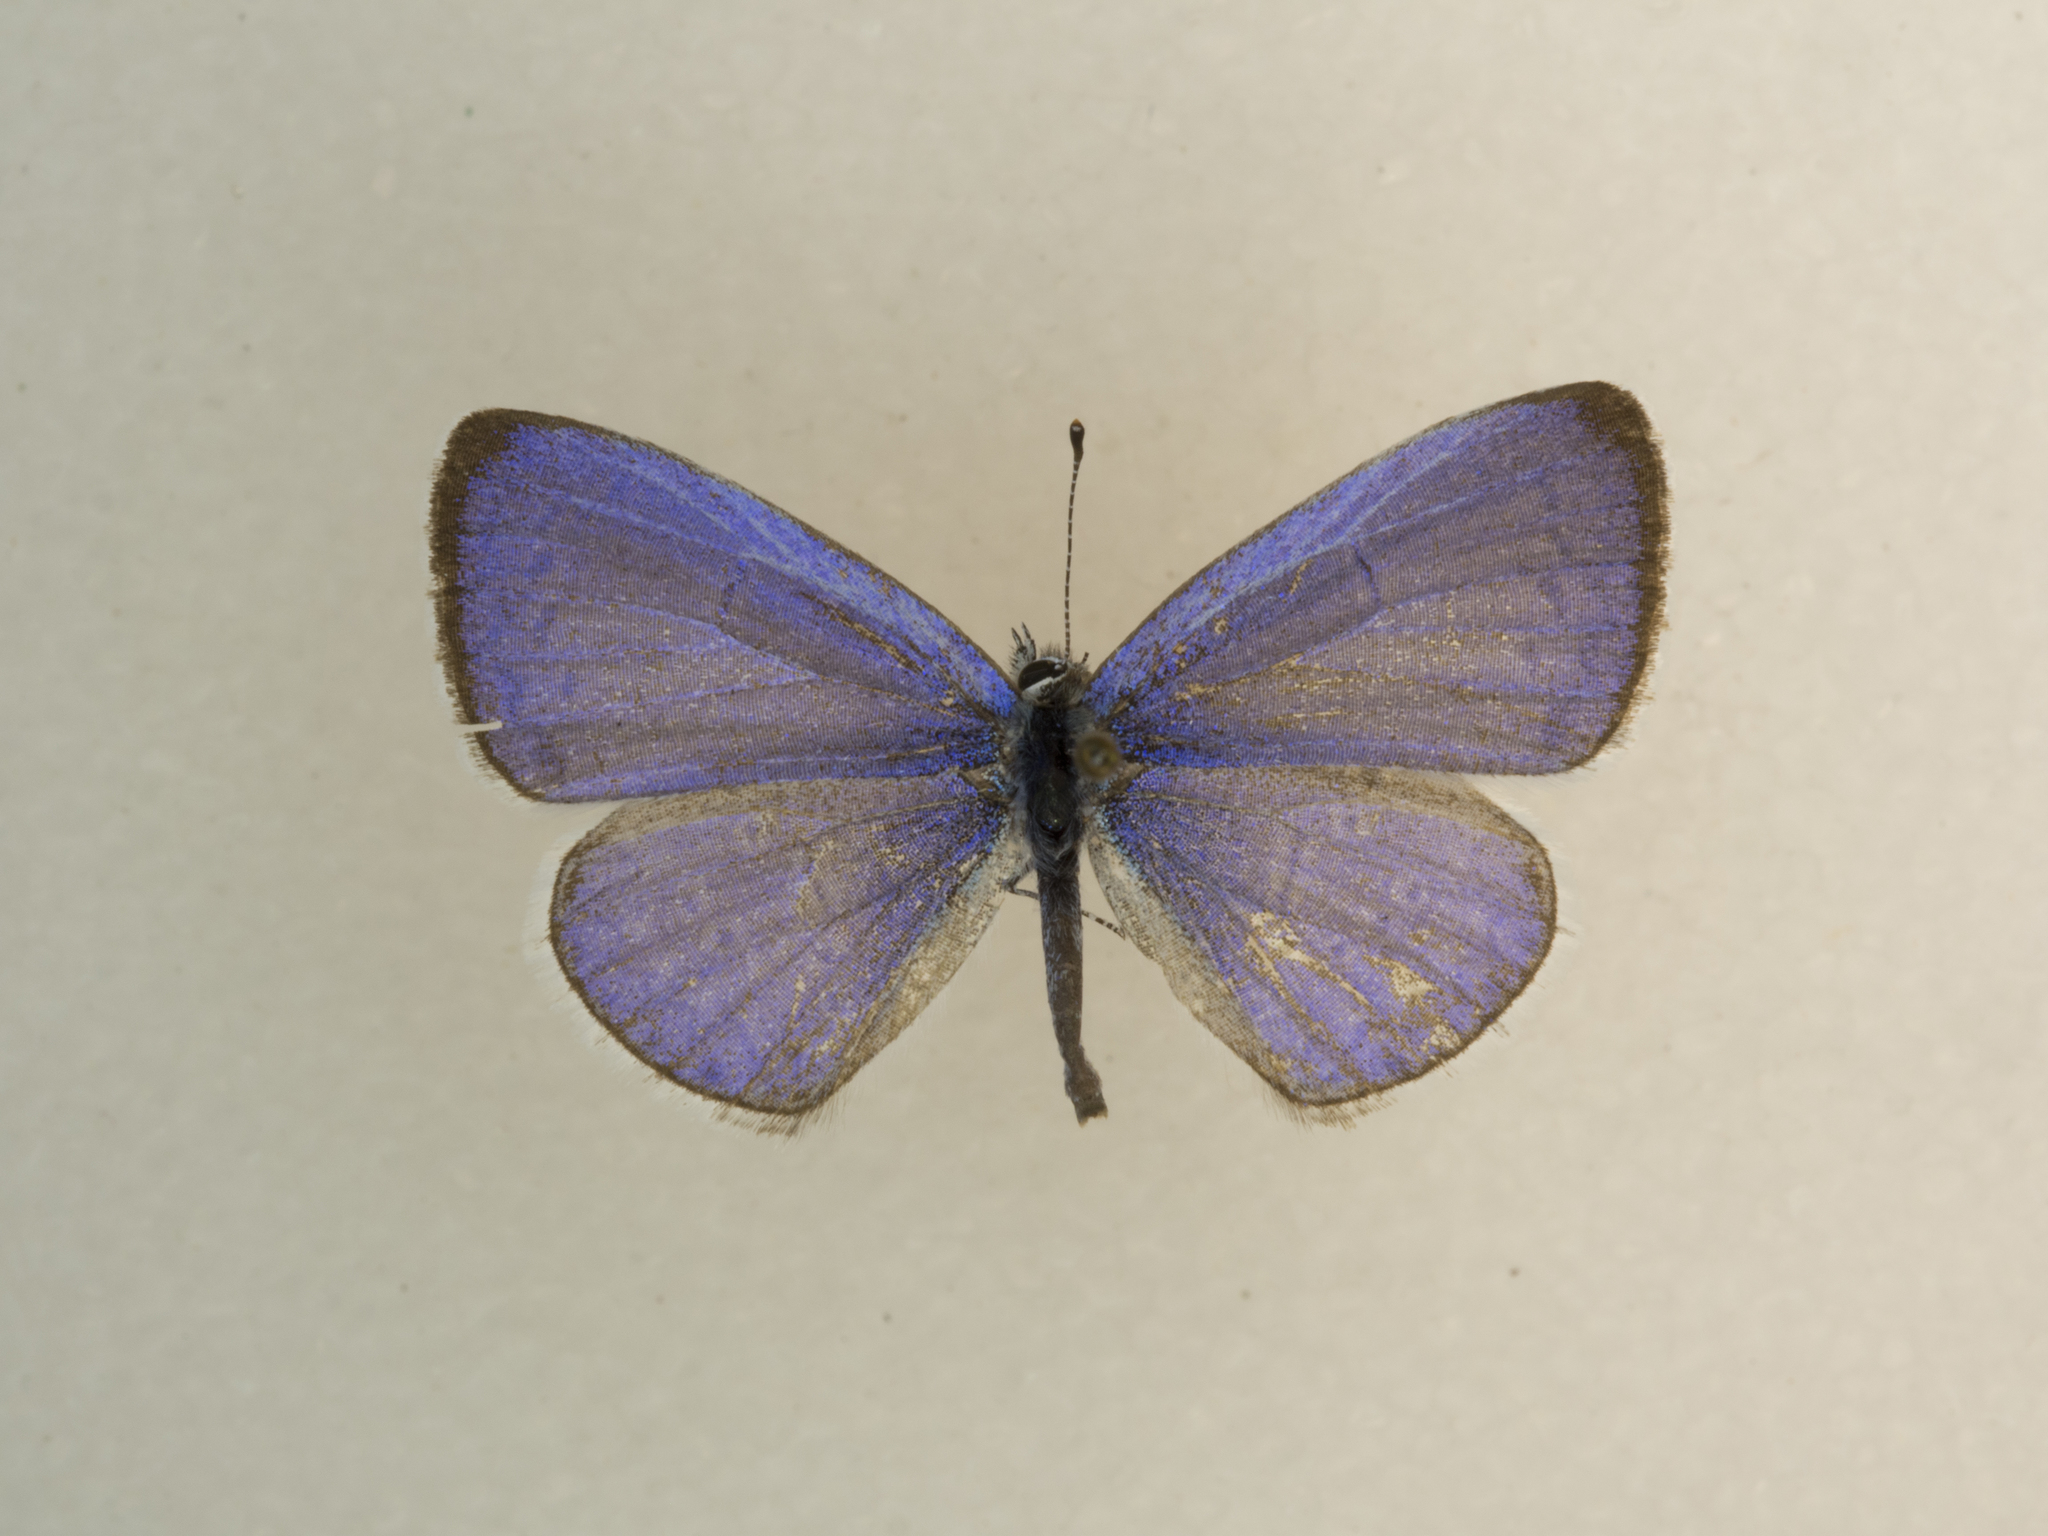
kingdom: Animalia
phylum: Arthropoda
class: Insecta
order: Lepidoptera
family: Lycaenidae
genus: Celastrina
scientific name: Celastrina argiolus
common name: Holly blue
